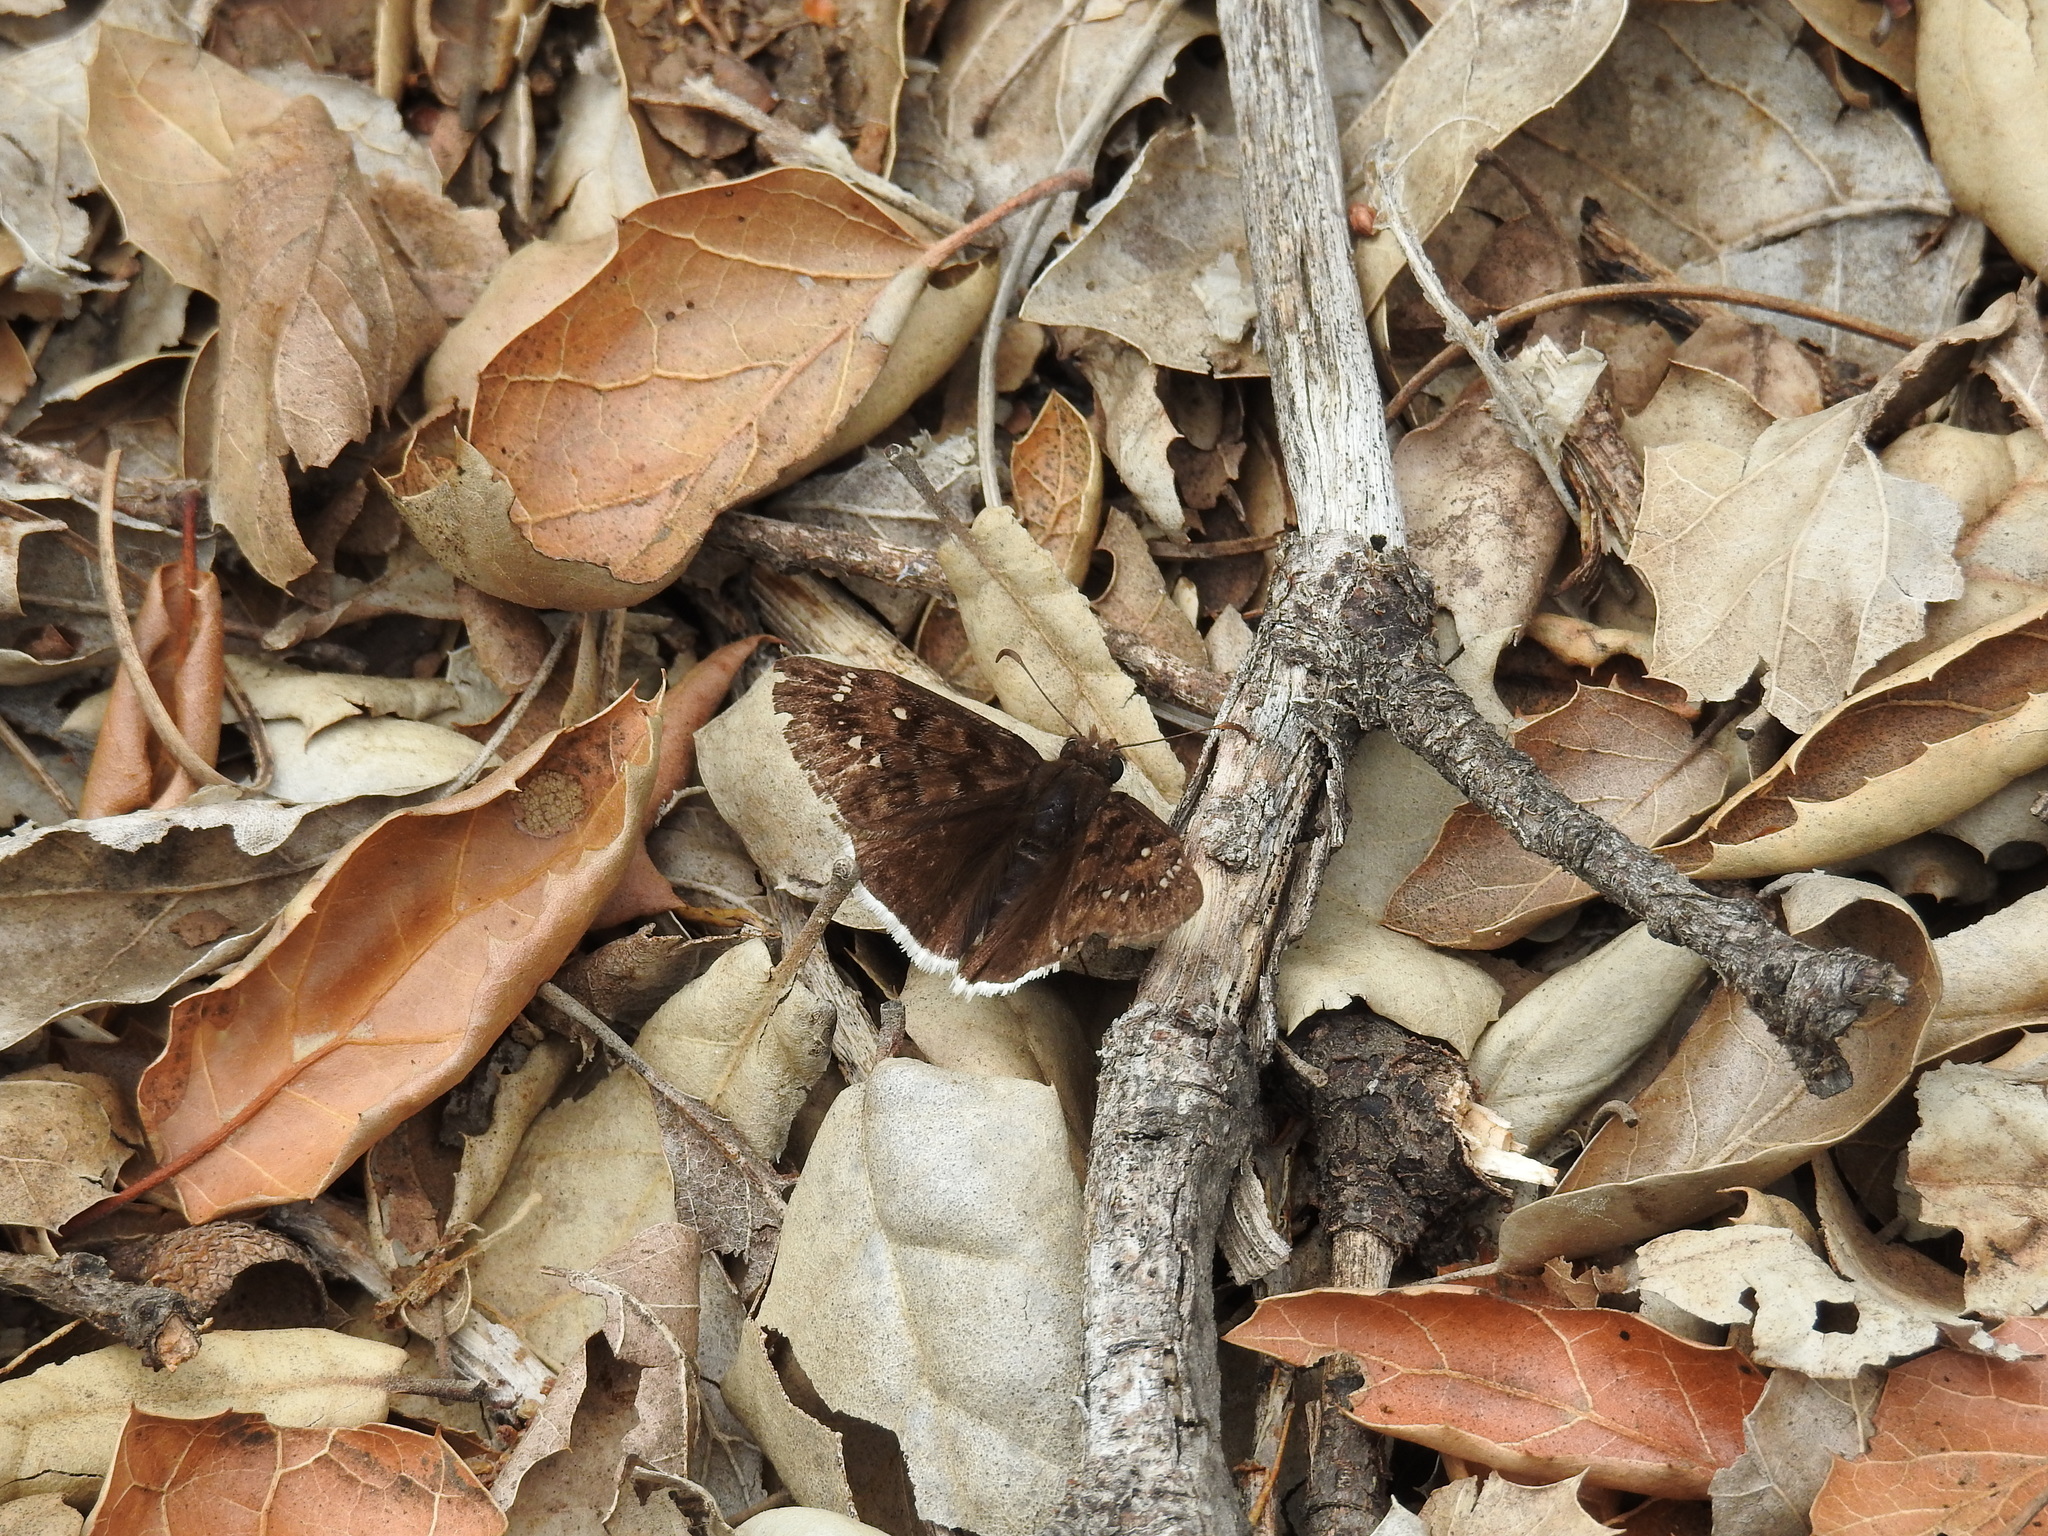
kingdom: Animalia
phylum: Arthropoda
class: Insecta
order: Lepidoptera
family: Hesperiidae
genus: Erynnis
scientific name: Erynnis tristis
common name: Mournful duskywing
